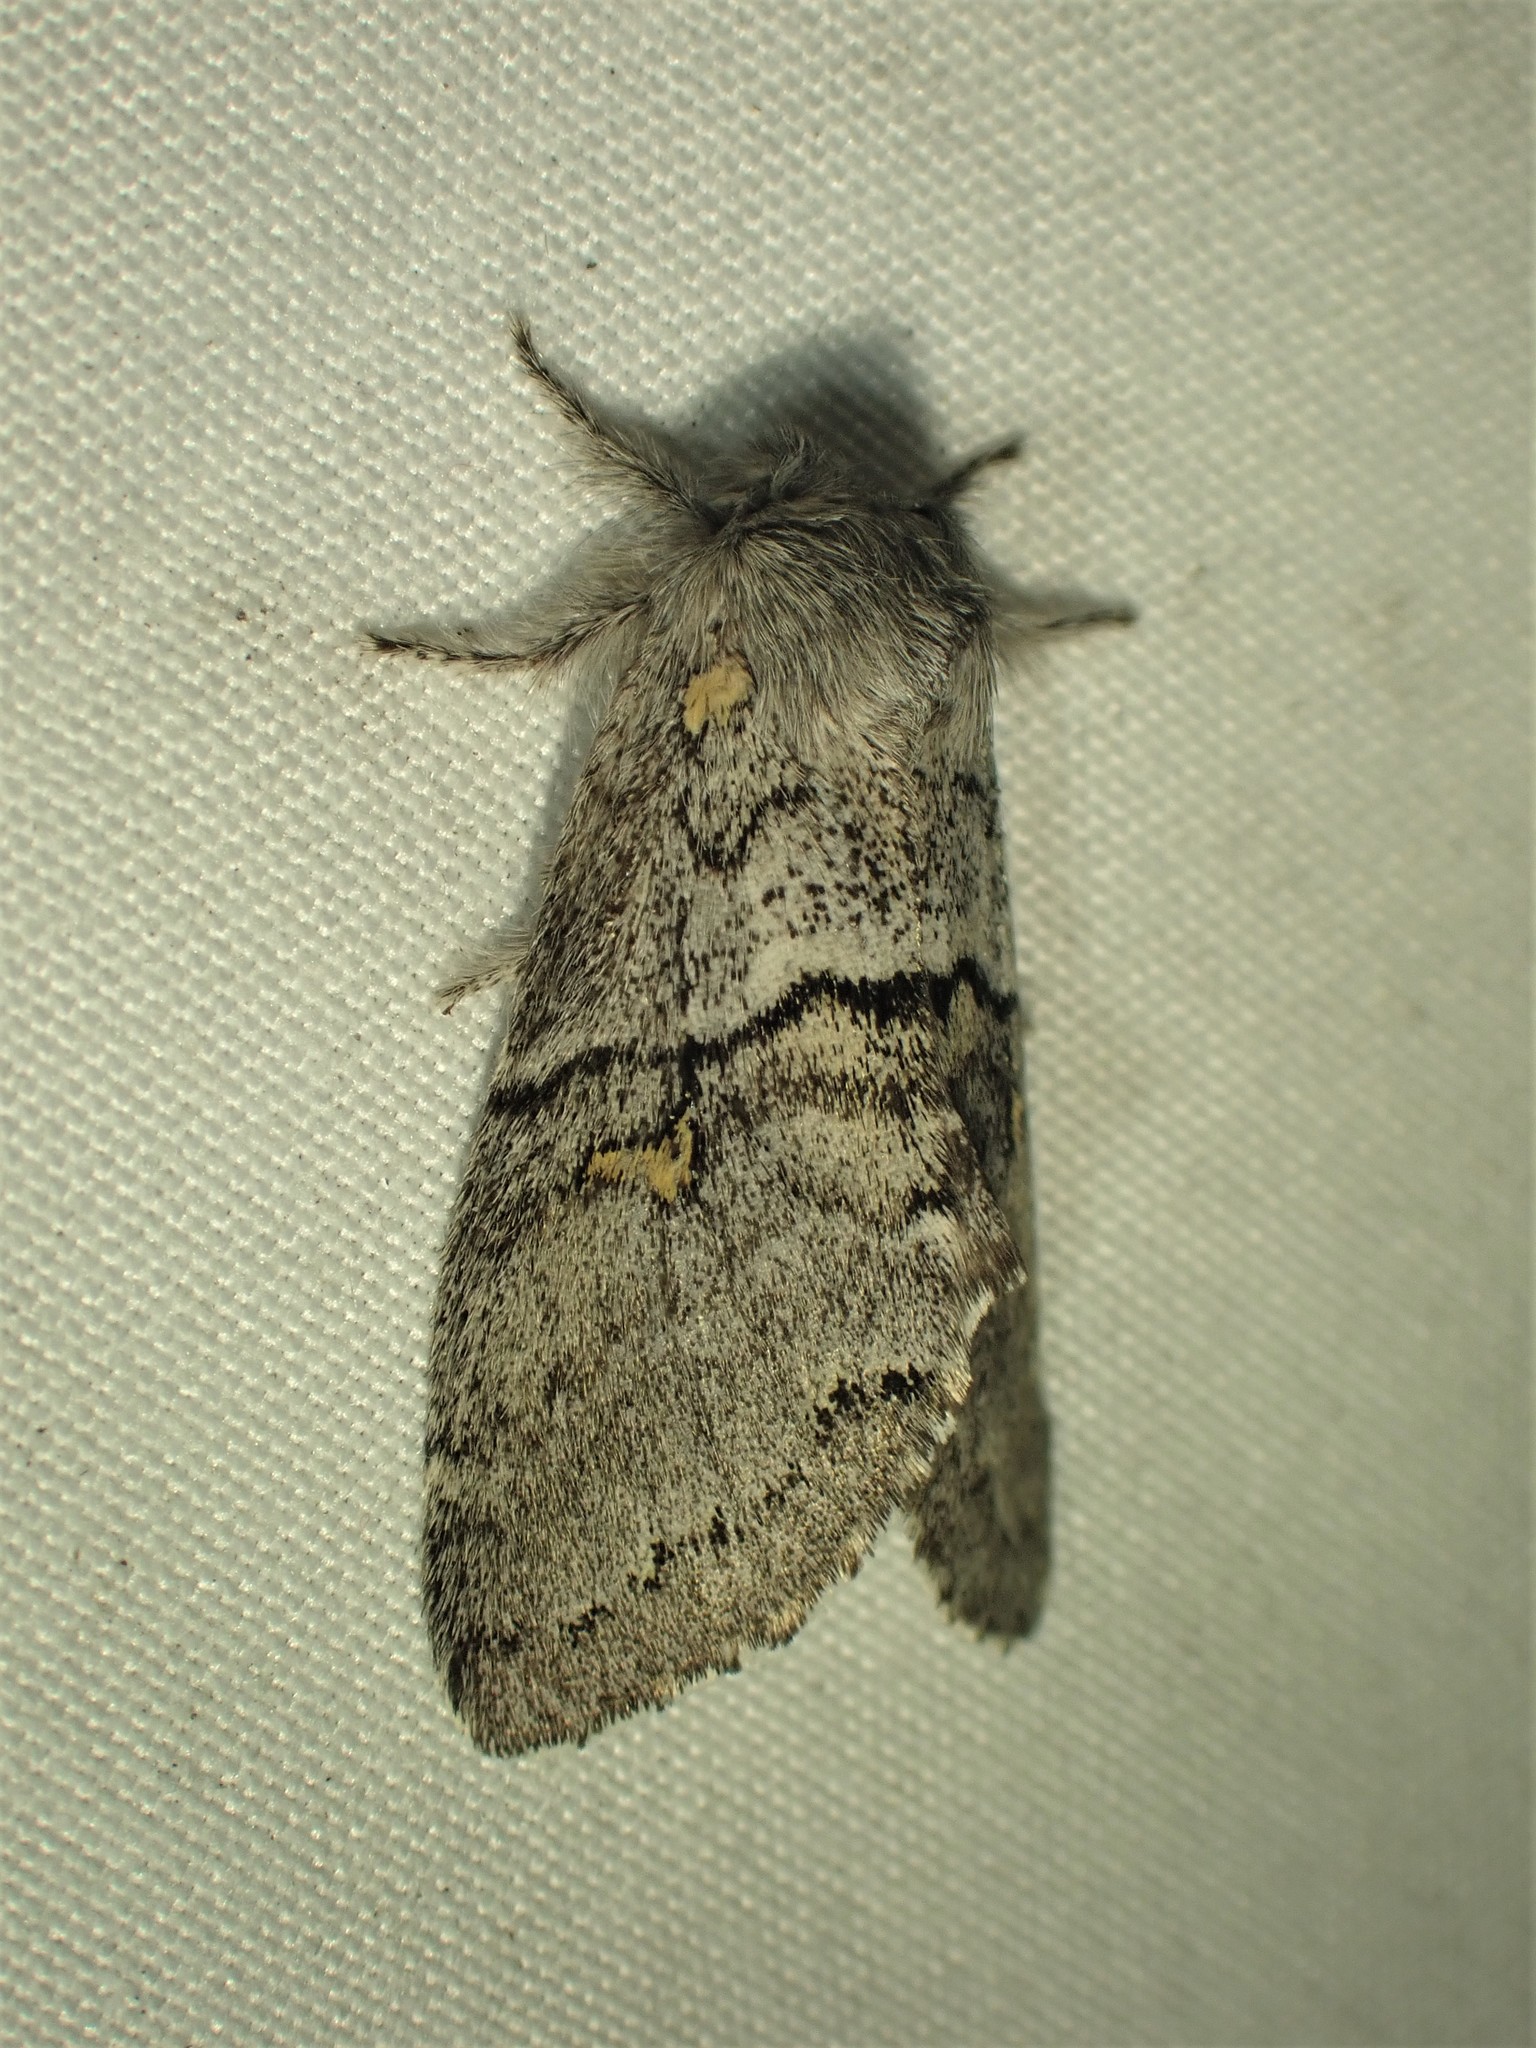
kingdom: Animalia
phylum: Arthropoda
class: Insecta
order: Lepidoptera
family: Notodontidae
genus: Gluphisia
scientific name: Gluphisia avimacula
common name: Four-spotted gluphisia moth
